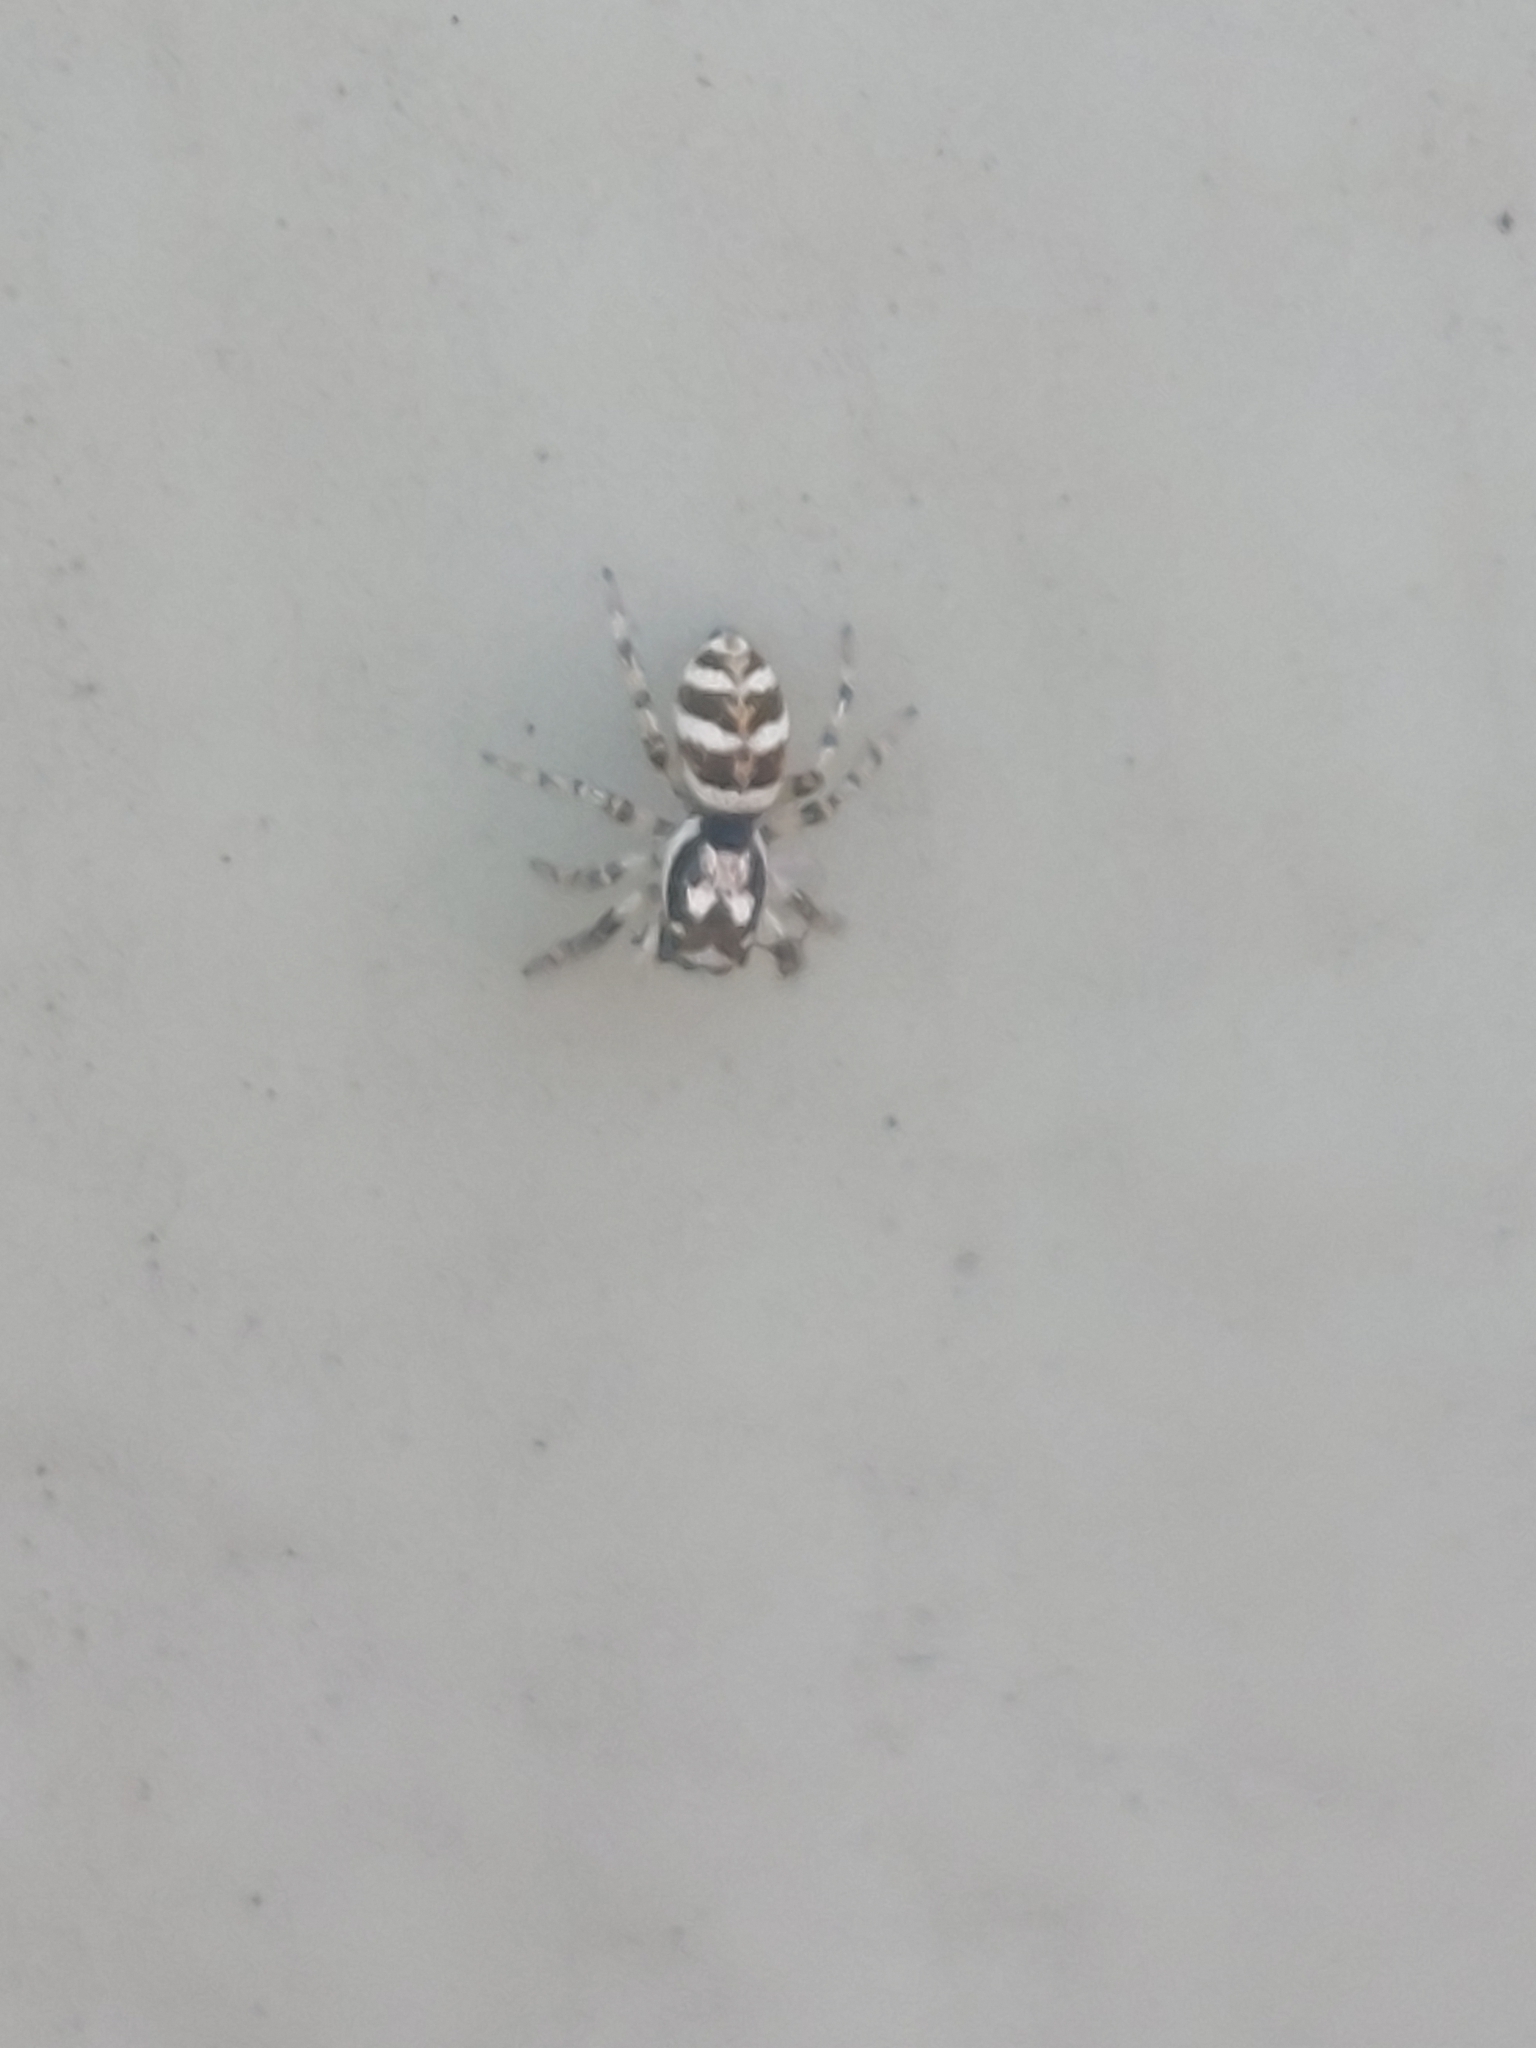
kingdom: Animalia
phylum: Arthropoda
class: Arachnida
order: Araneae
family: Salticidae
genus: Salticus
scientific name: Salticus scenicus
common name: Zebra jumper
